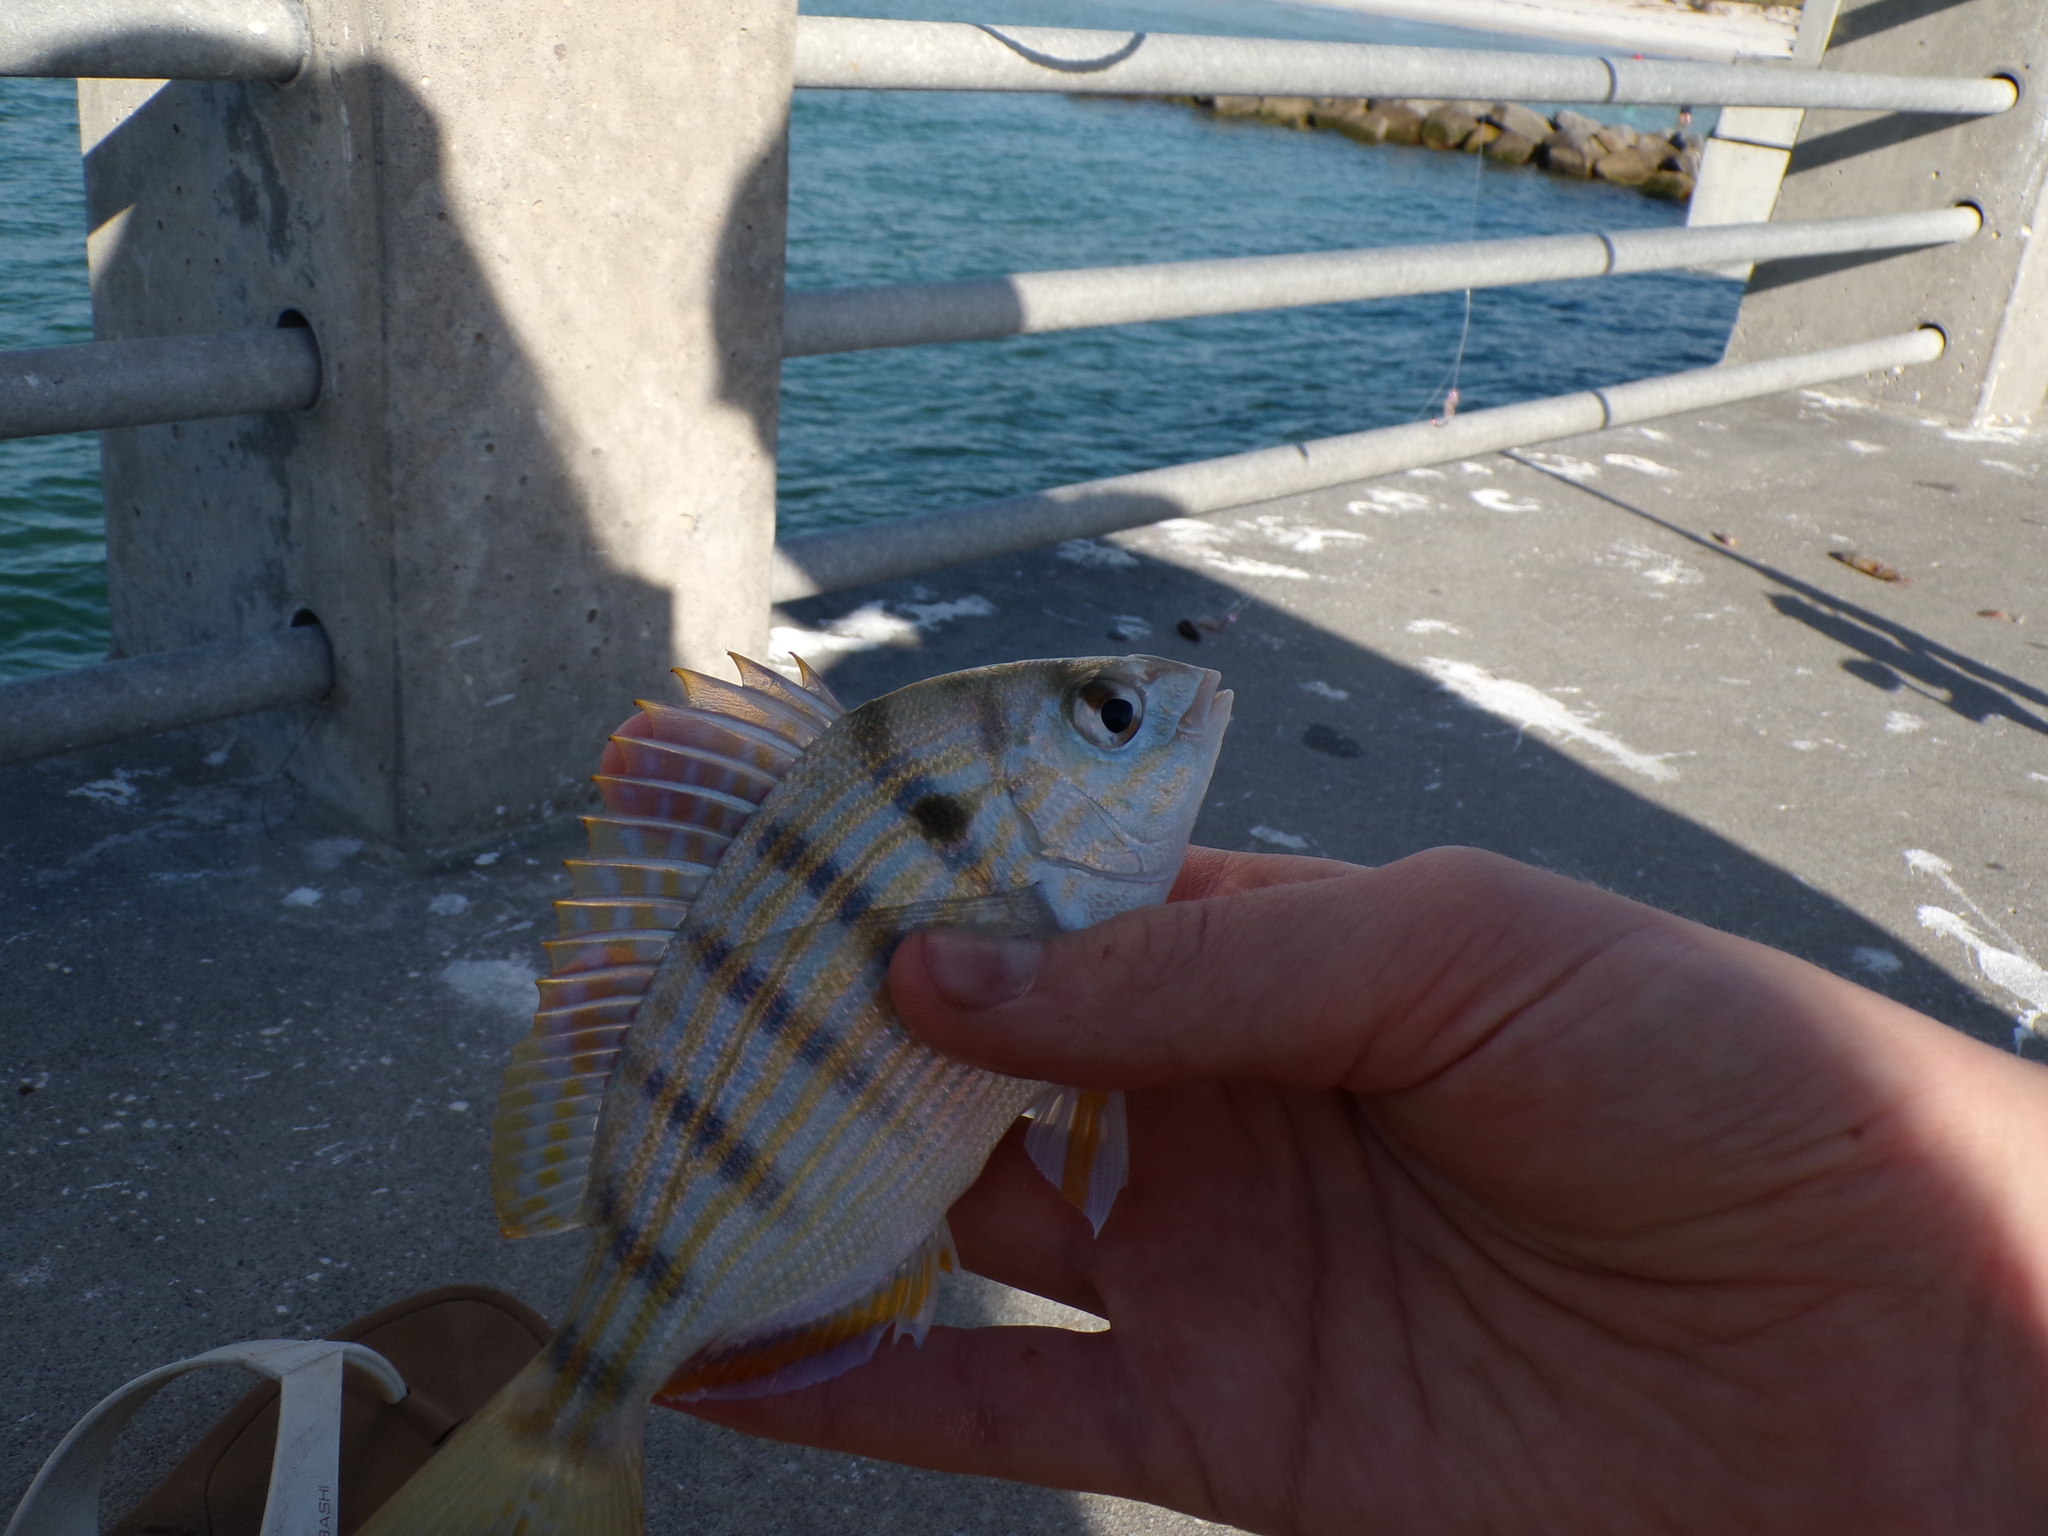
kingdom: Animalia
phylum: Chordata
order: Perciformes
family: Sparidae
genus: Lagodon
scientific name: Lagodon rhomboides
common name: Pinfish
